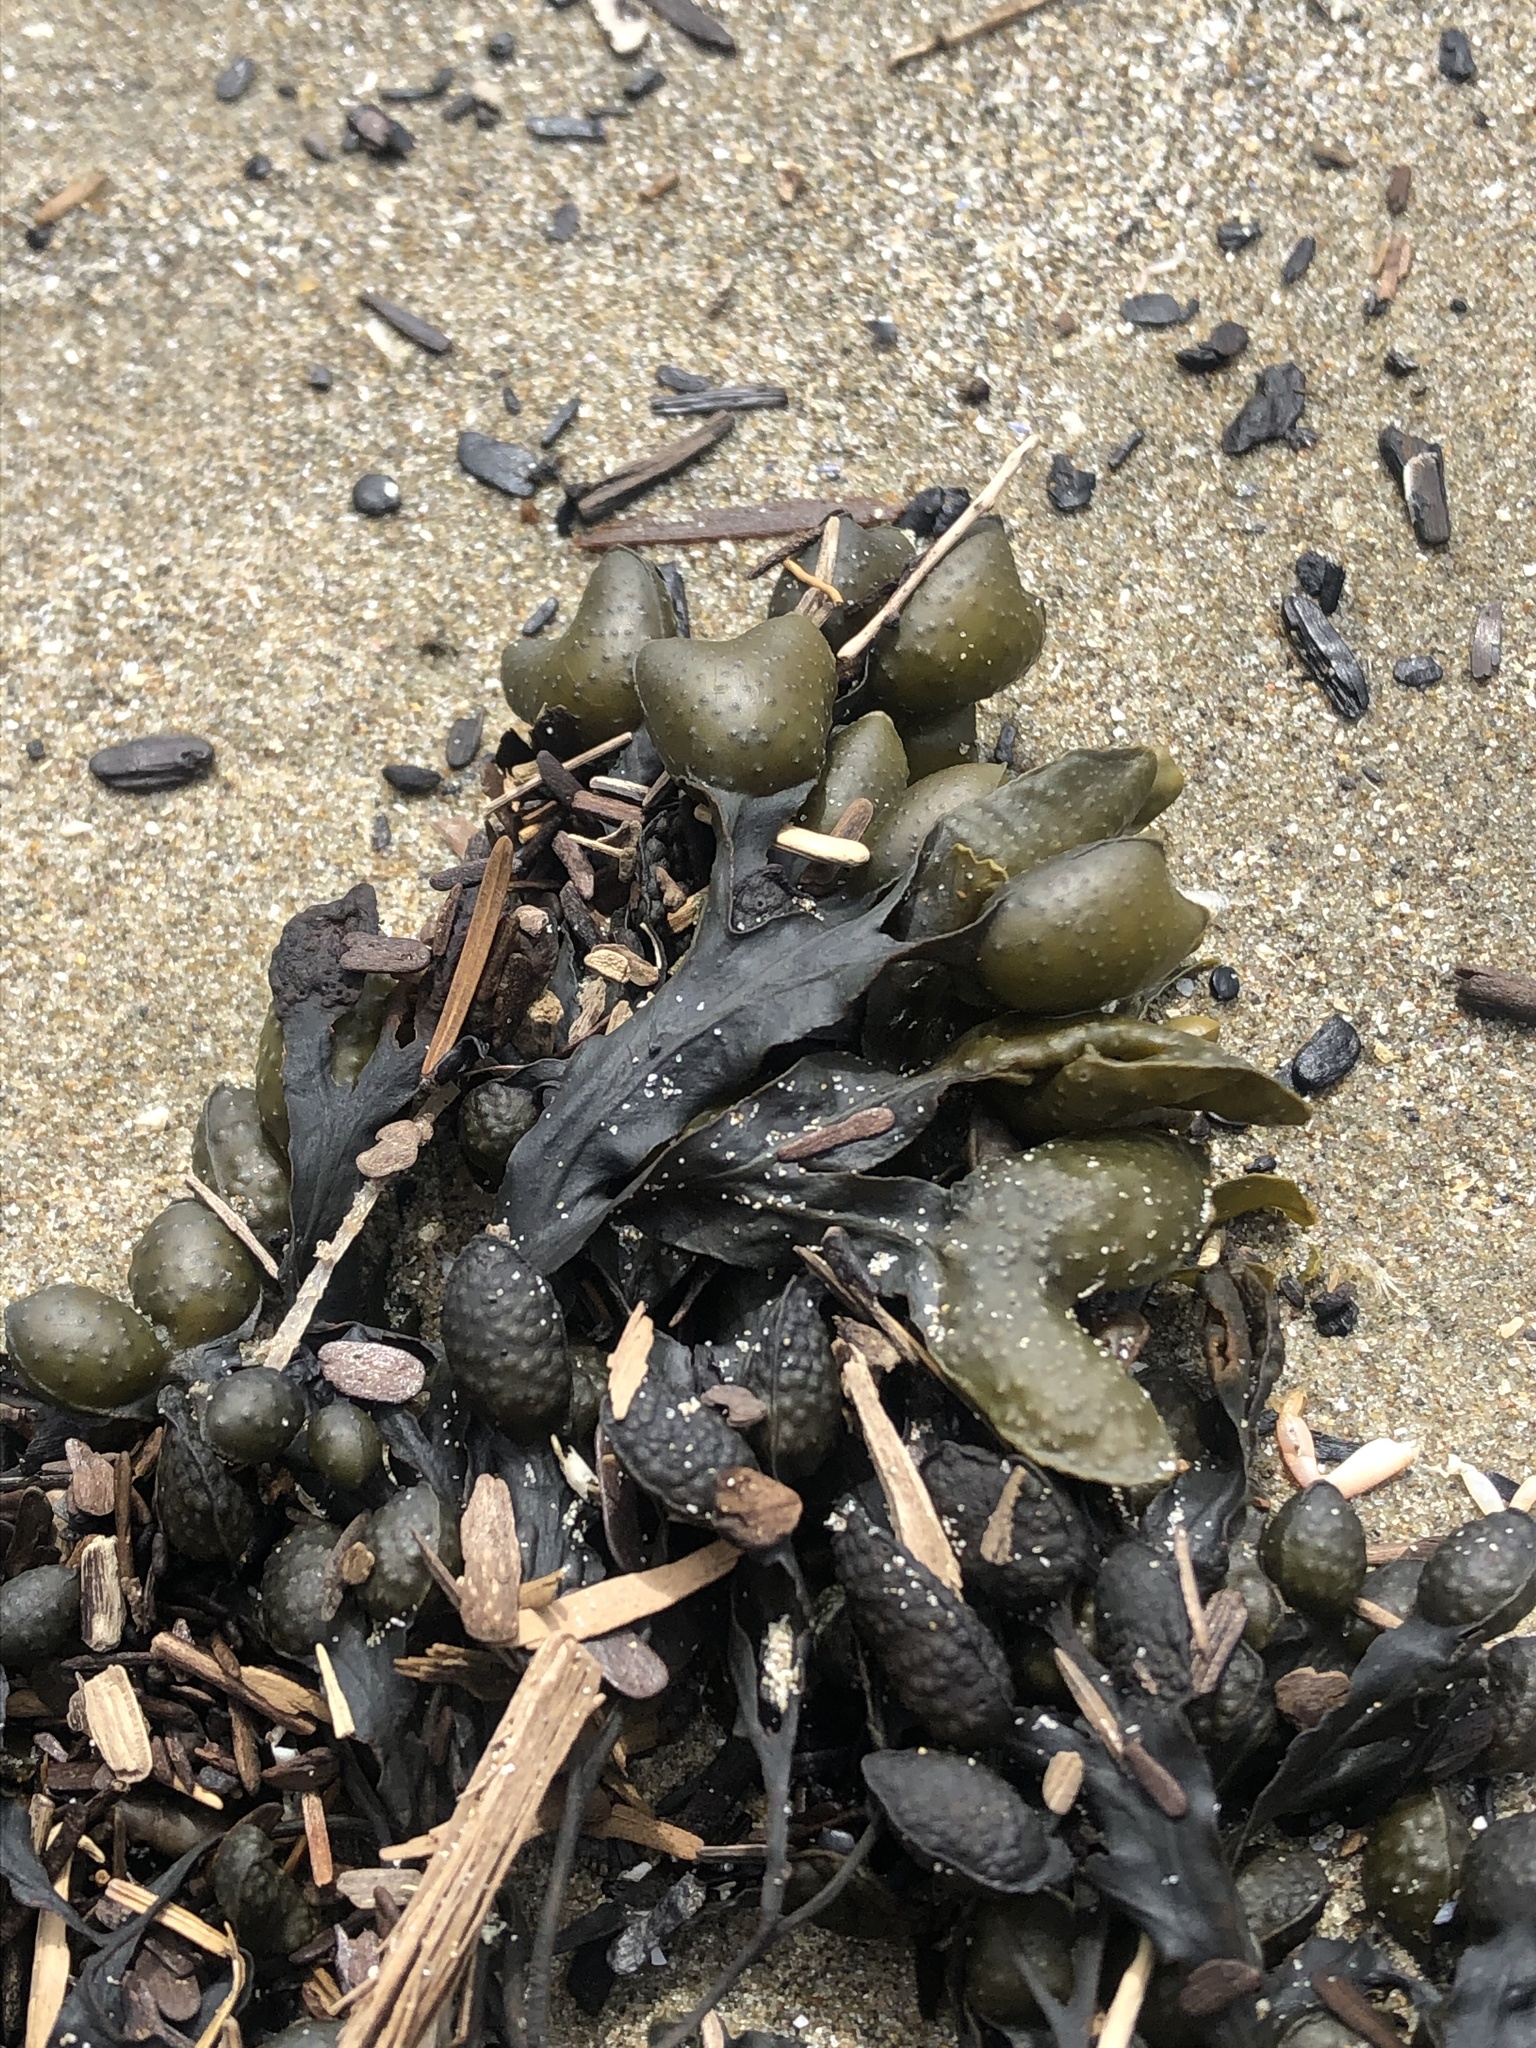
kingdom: Chromista
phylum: Ochrophyta
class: Phaeophyceae
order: Fucales
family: Fucaceae
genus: Fucus
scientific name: Fucus distichus
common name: Rockweed
